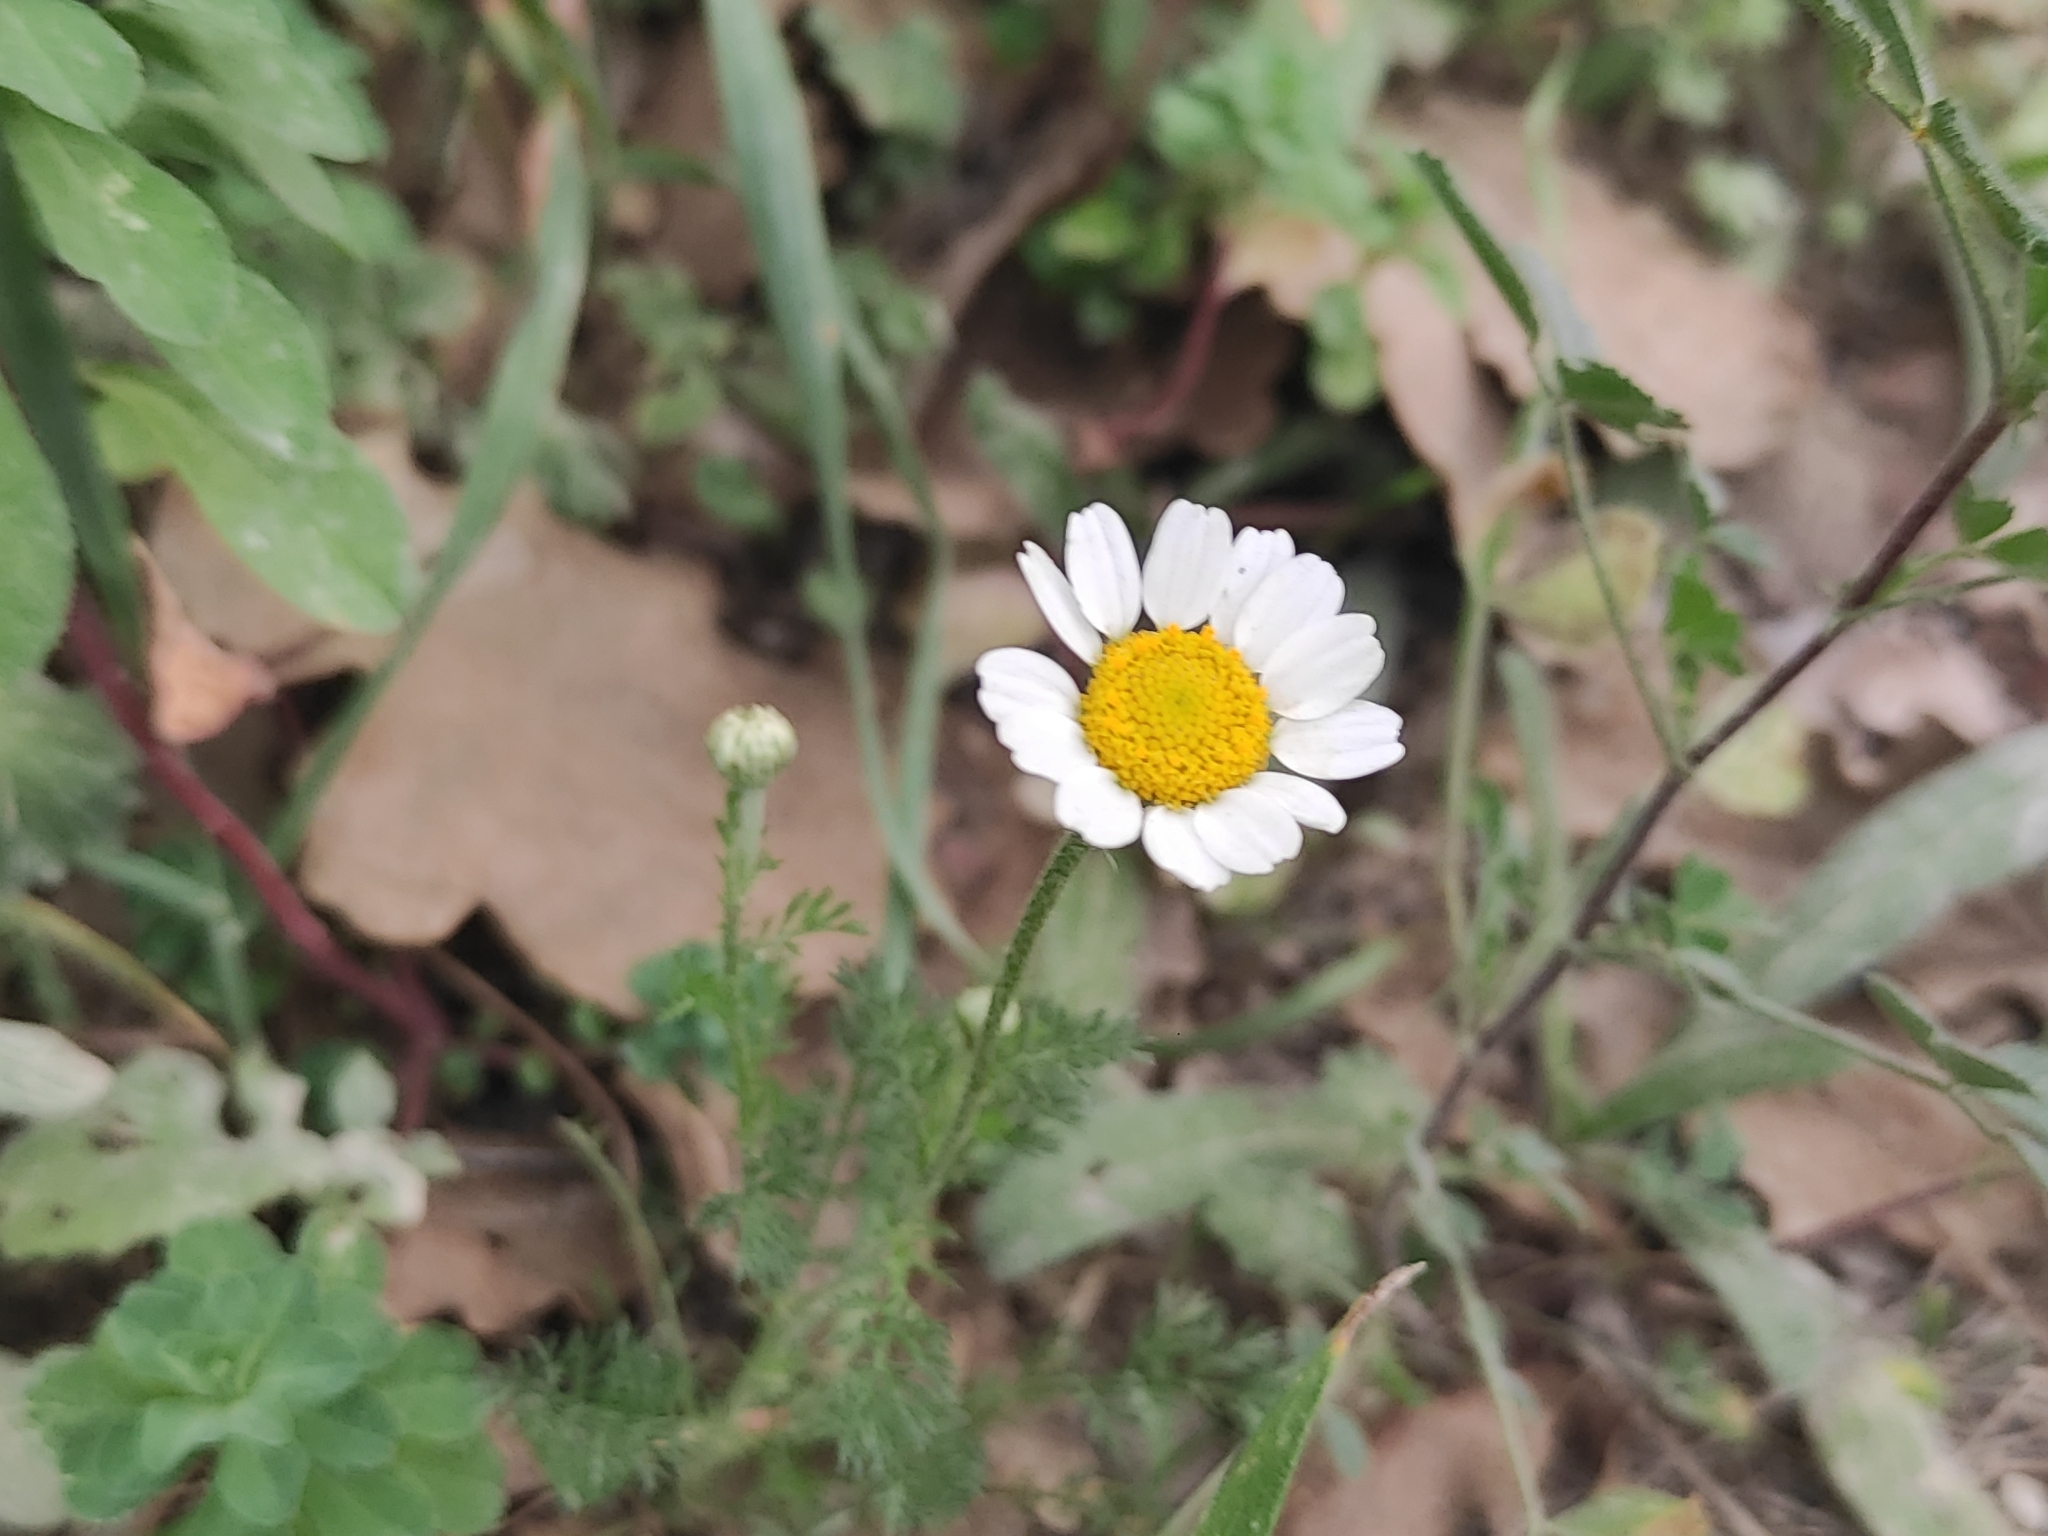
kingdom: Plantae
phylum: Tracheophyta
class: Magnoliopsida
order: Asterales
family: Asteraceae
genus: Anthemis
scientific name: Anthemis arvensis
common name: Corn chamomile
